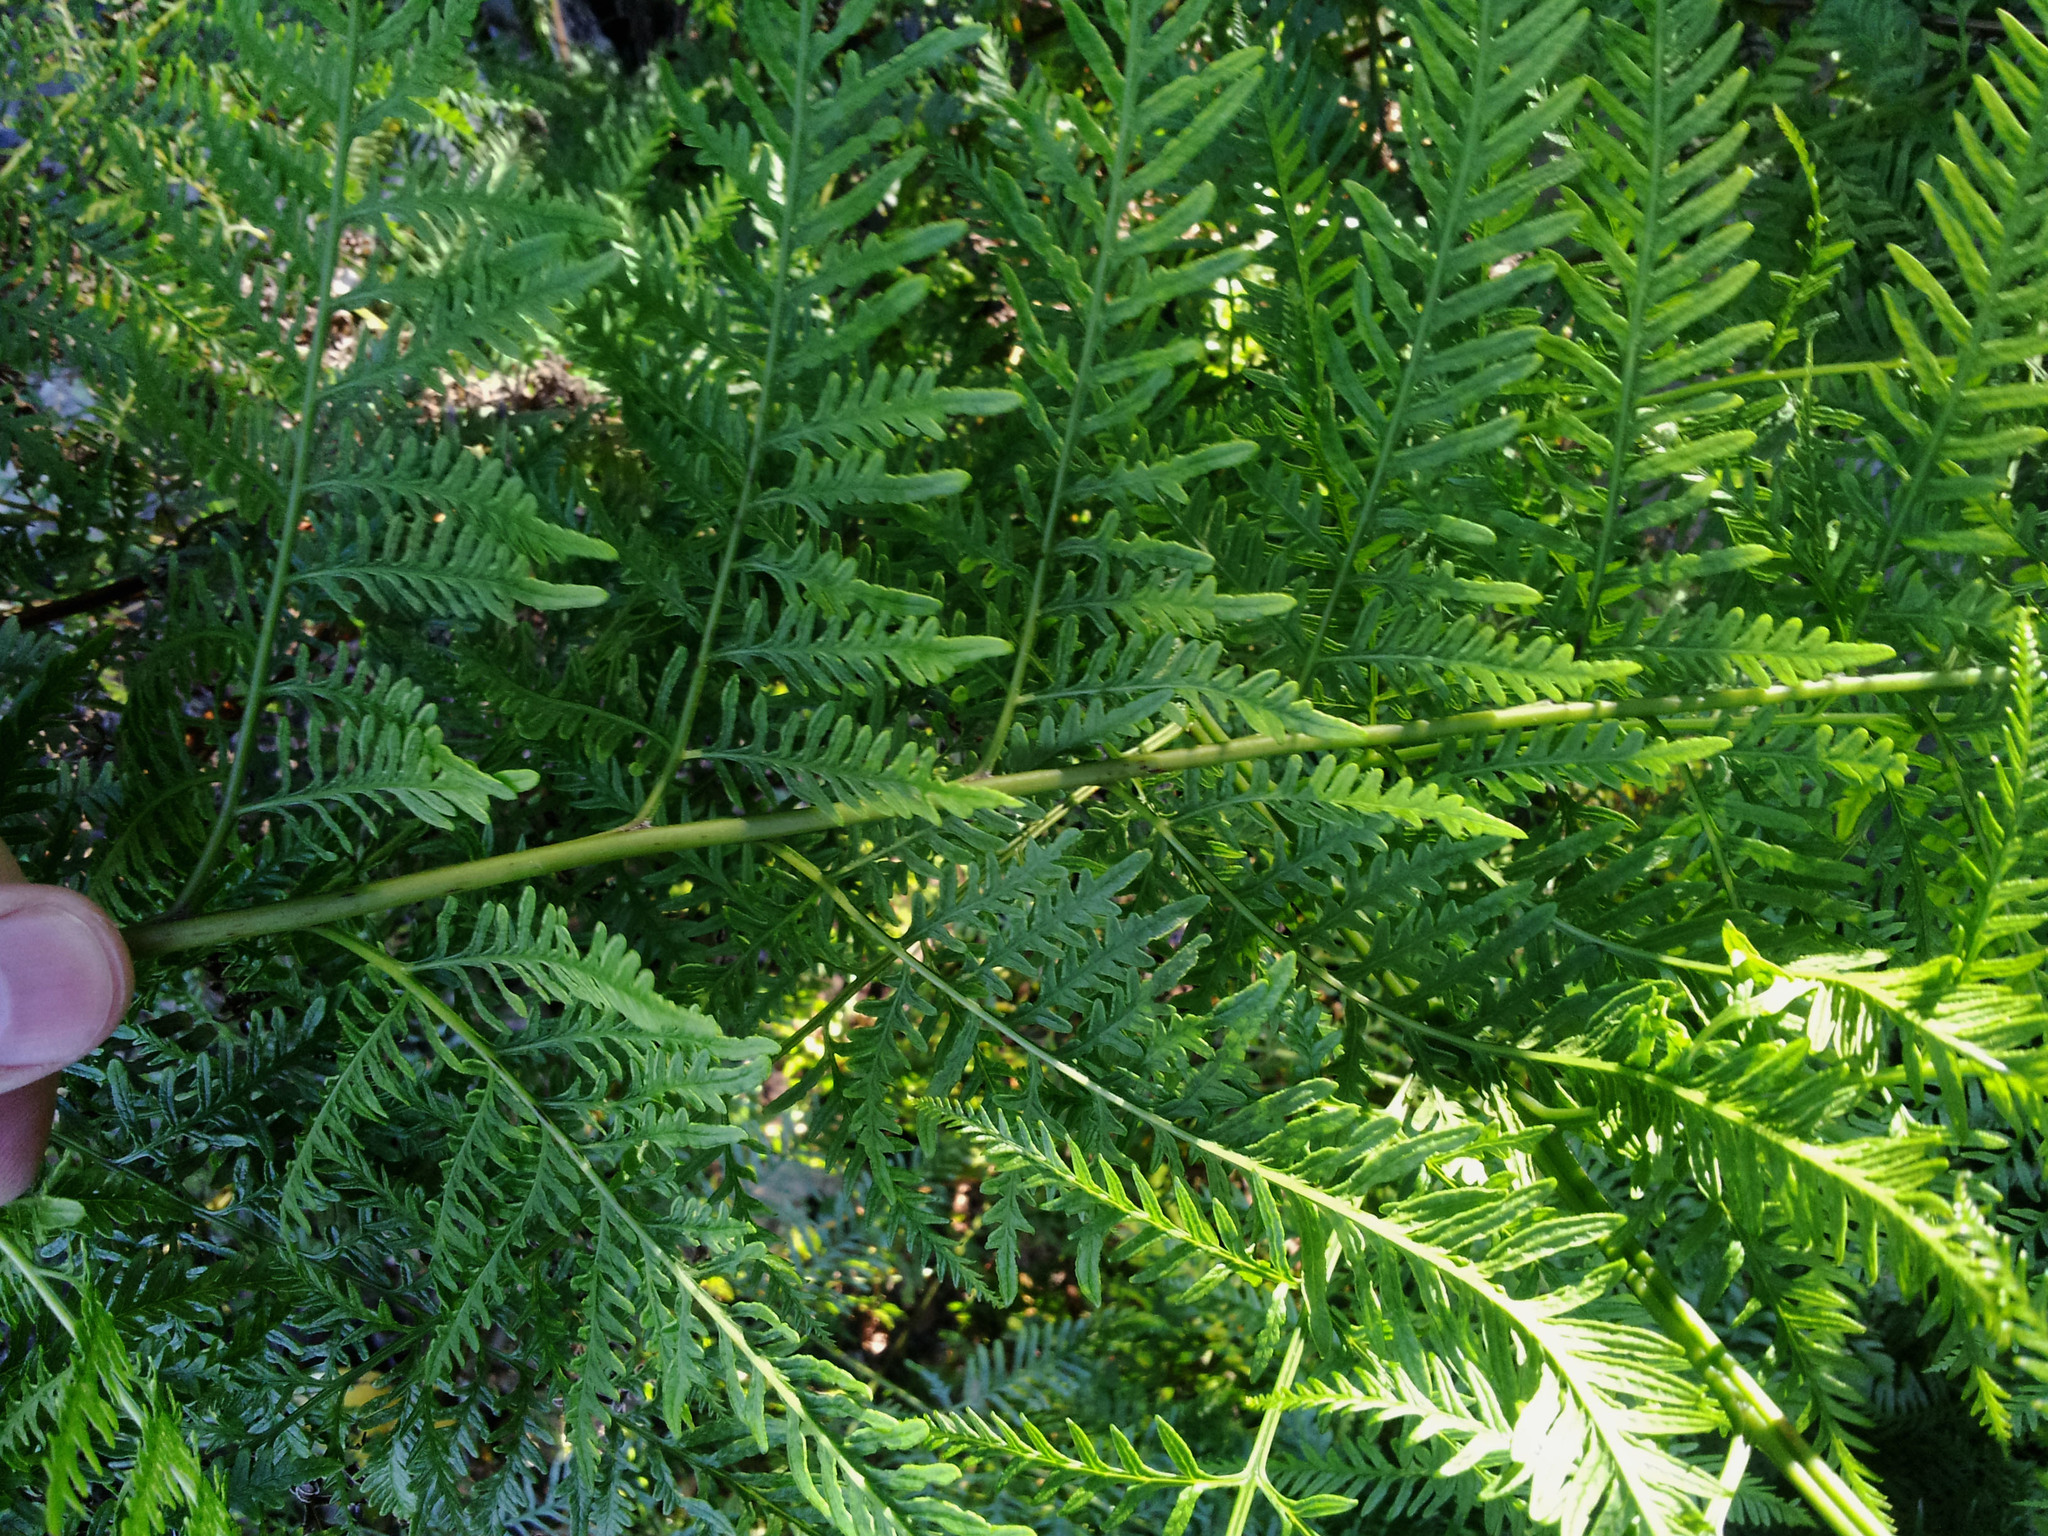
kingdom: Plantae
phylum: Tracheophyta
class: Polypodiopsida
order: Polypodiales
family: Pteridaceae
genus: Pteris
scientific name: Pteris tremula
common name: Australian brake
